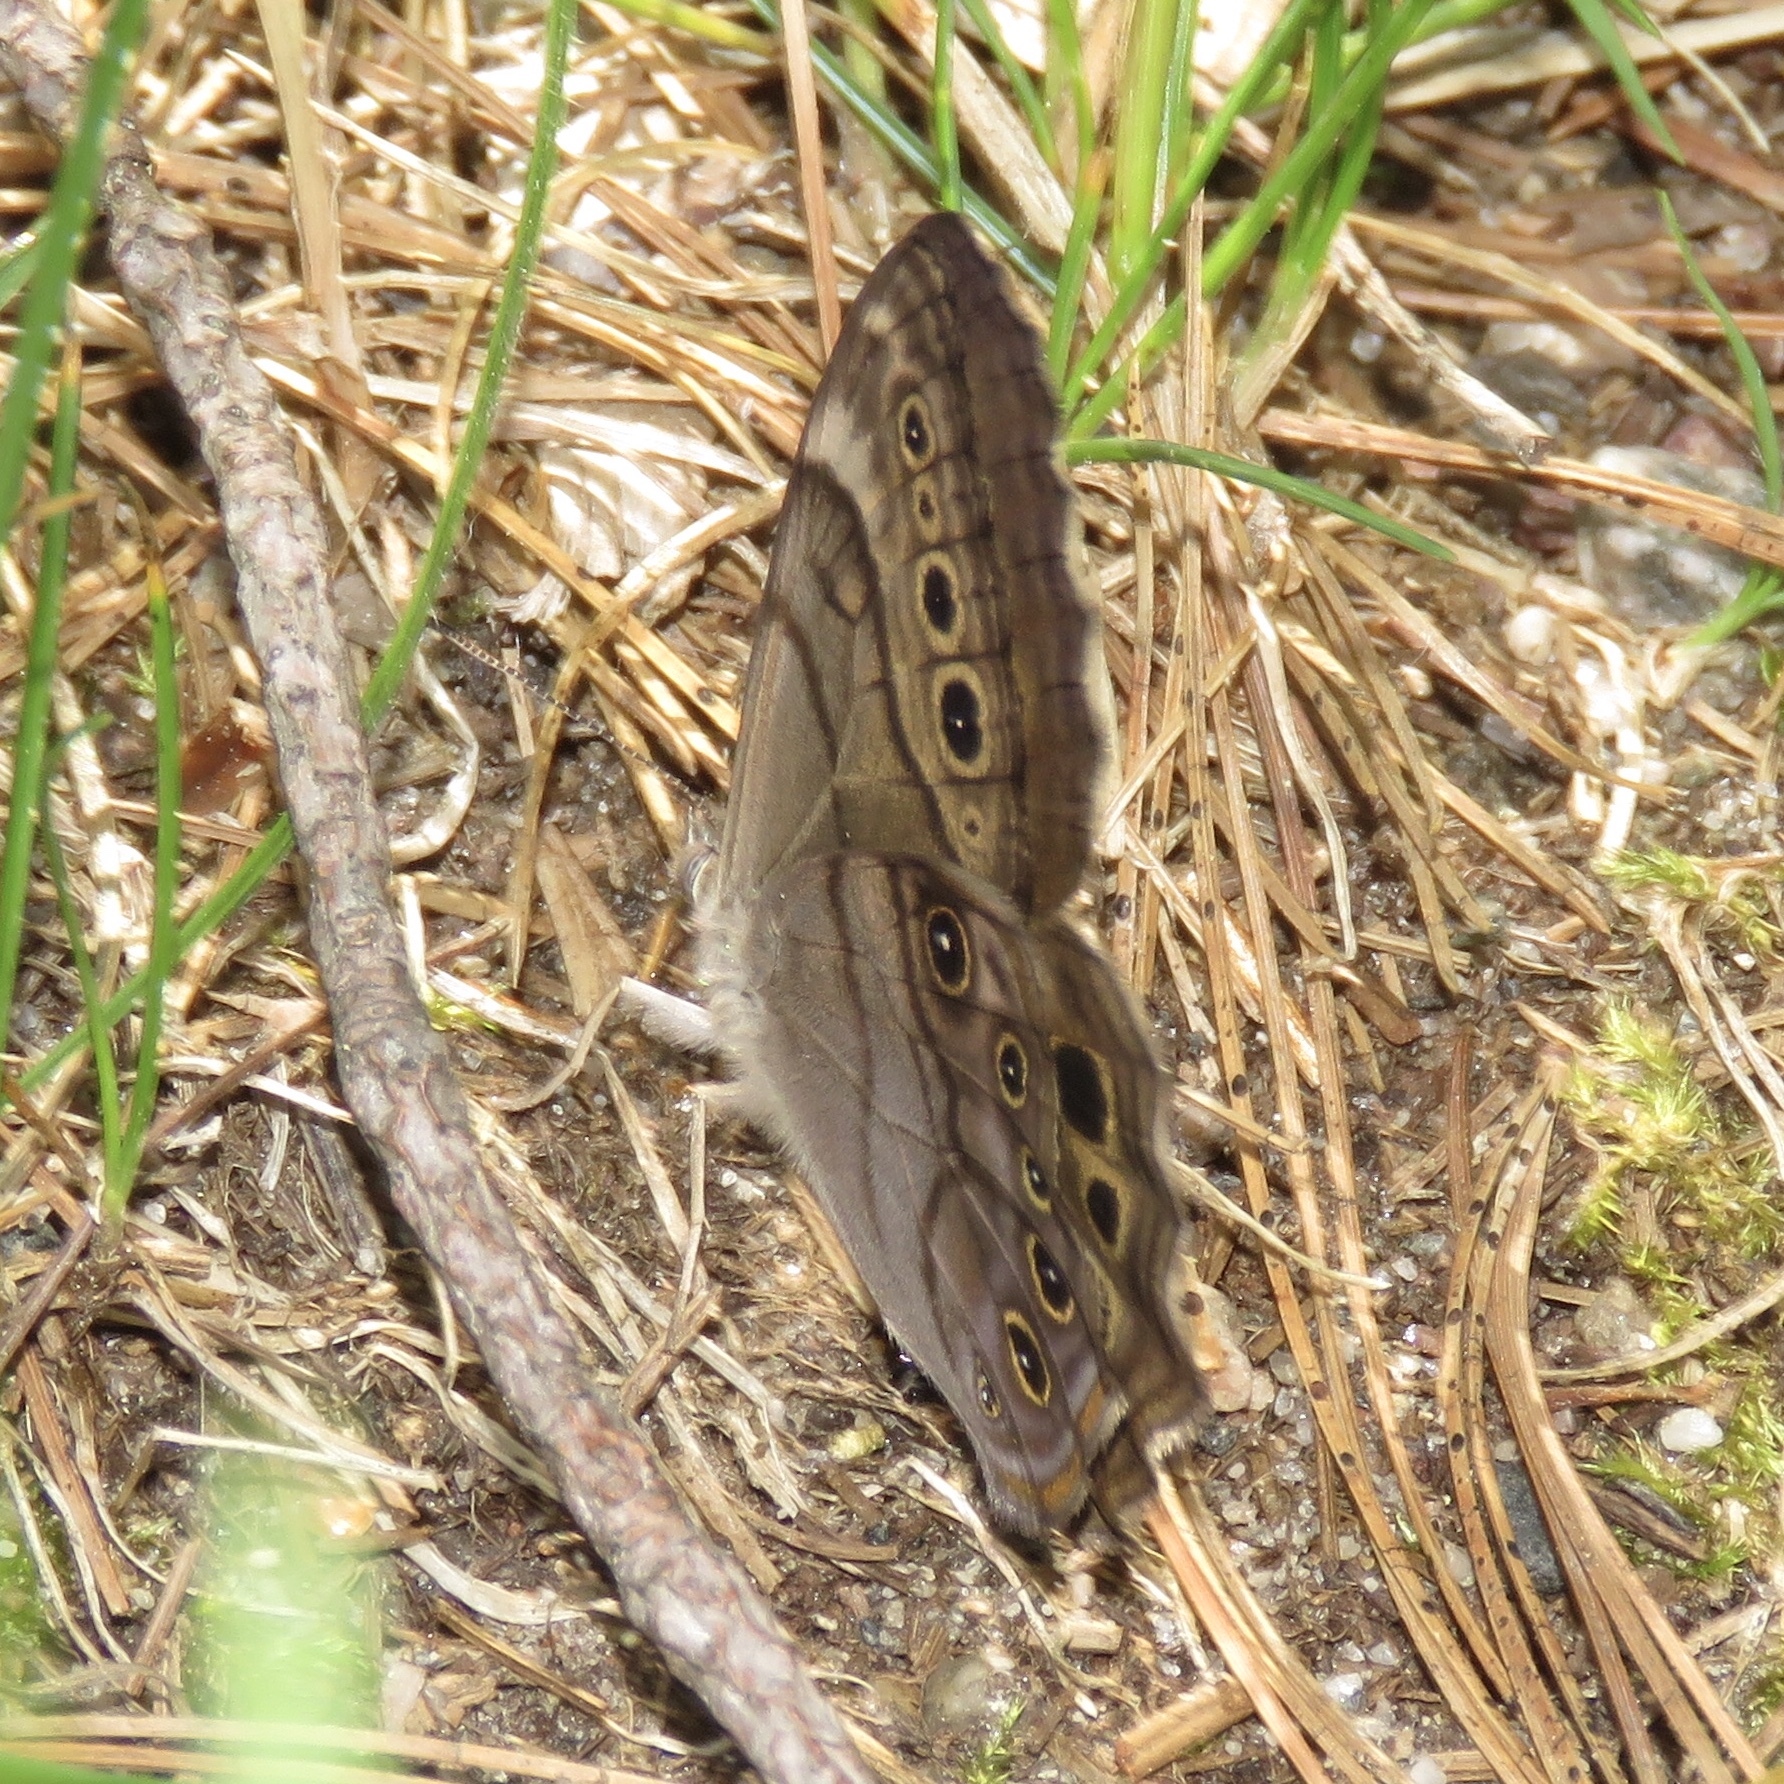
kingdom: Animalia
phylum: Arthropoda
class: Insecta
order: Lepidoptera
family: Nymphalidae
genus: Lethe
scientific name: Lethe anthedon
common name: Northern pearly-eye
